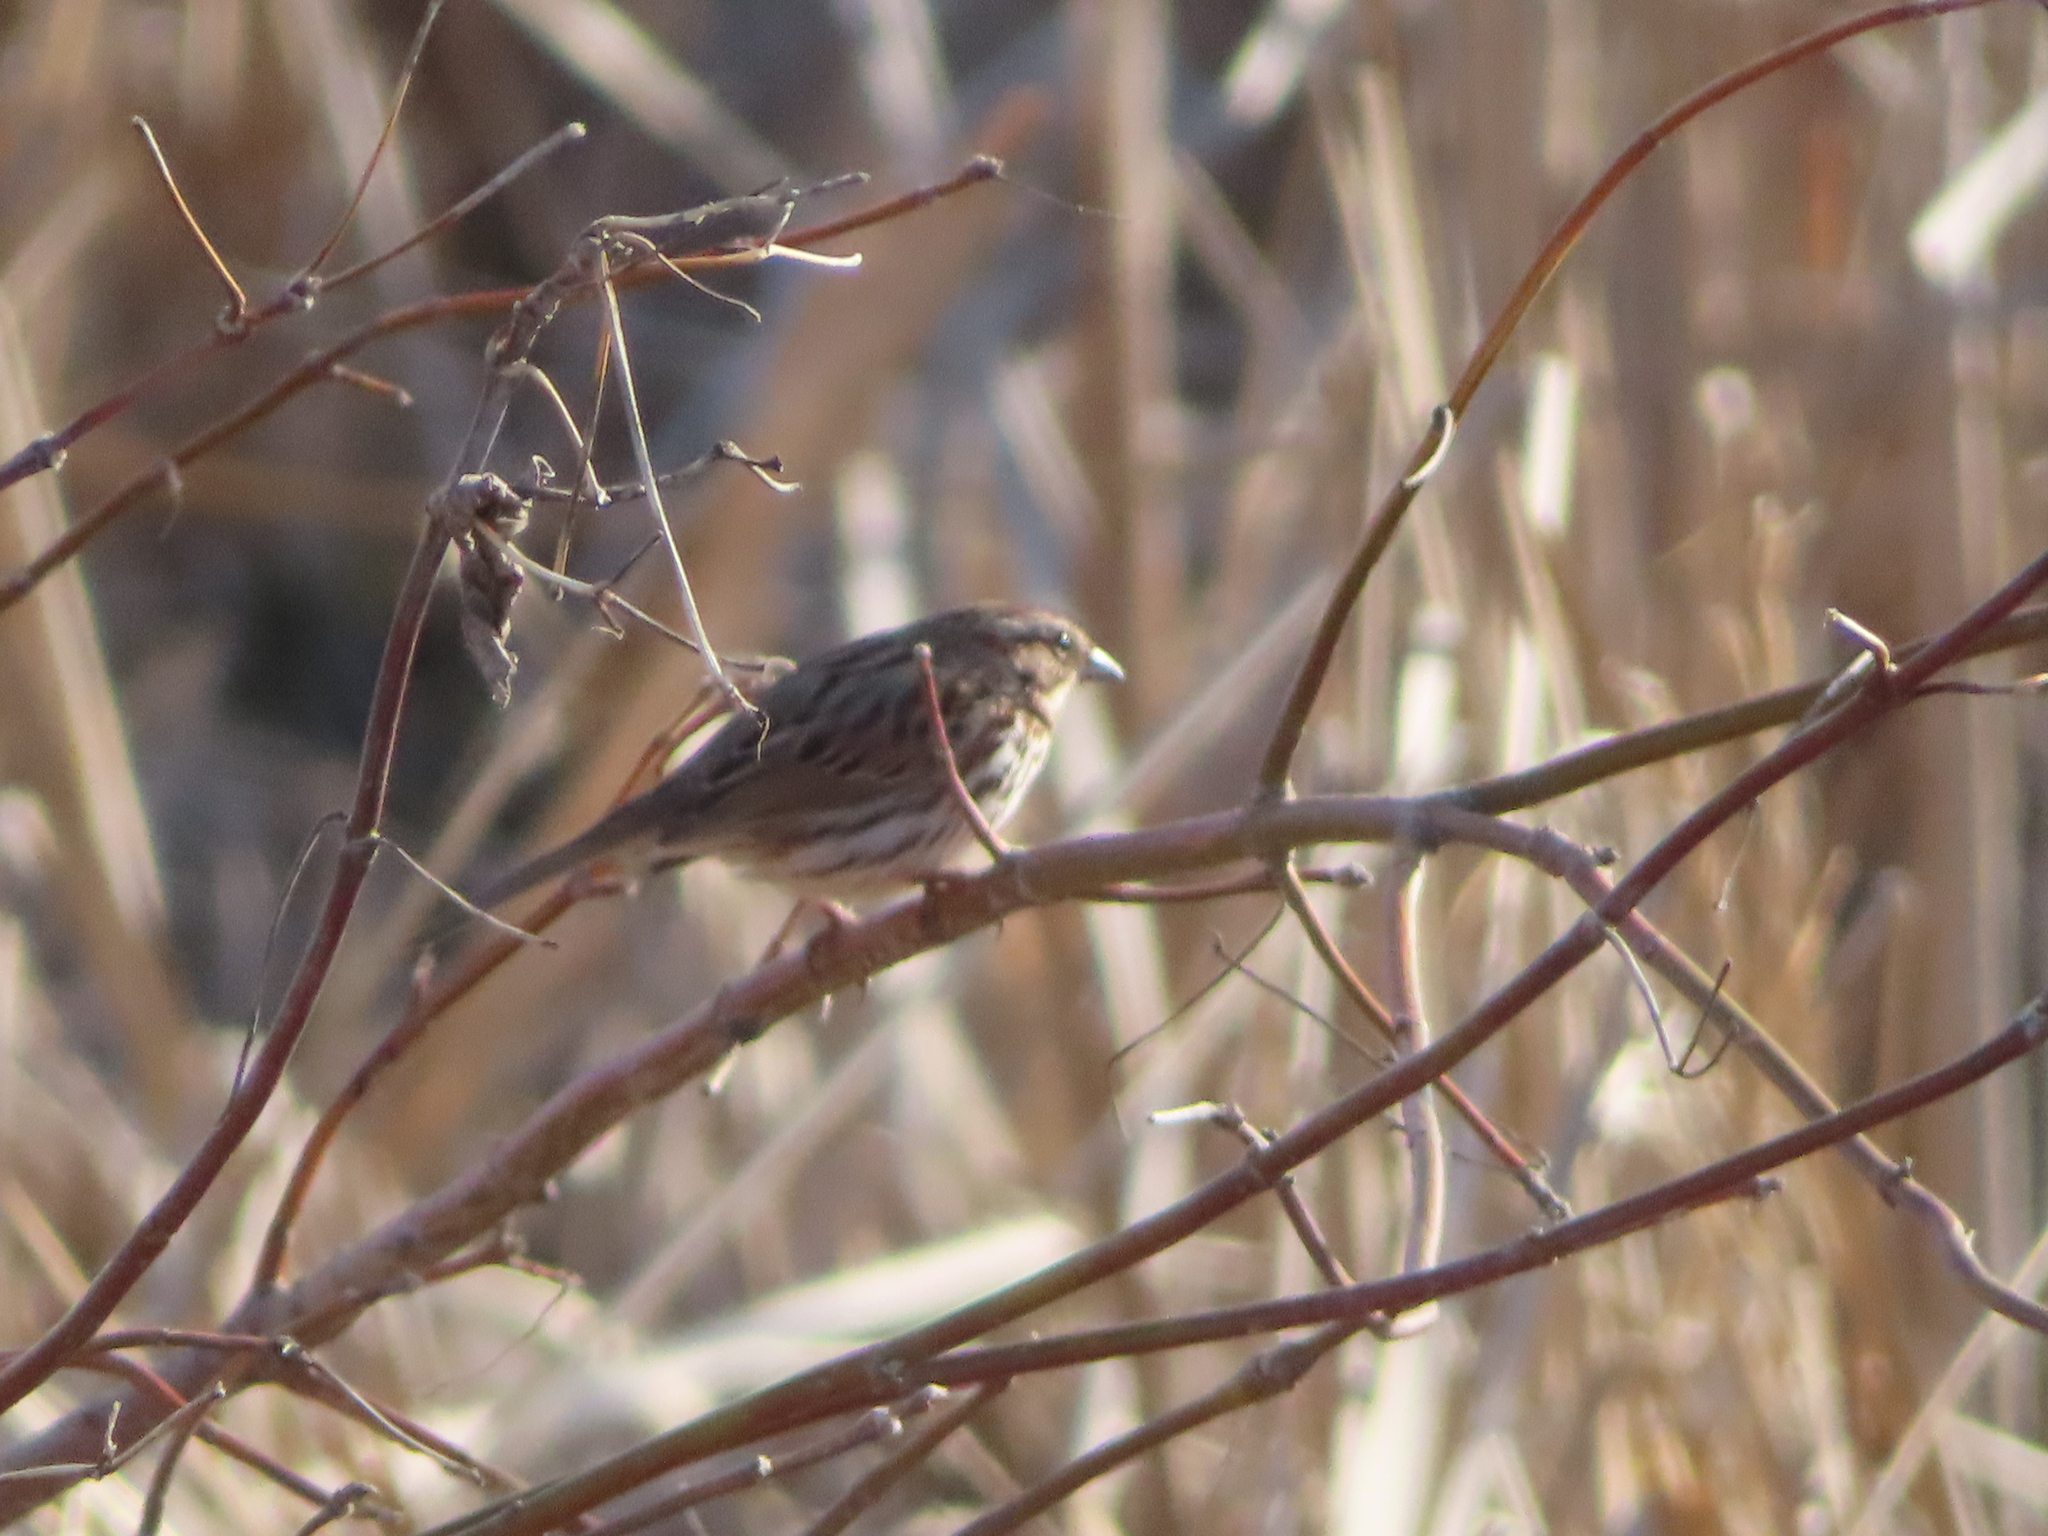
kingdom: Animalia
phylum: Chordata
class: Aves
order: Passeriformes
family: Passerellidae
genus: Melospiza
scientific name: Melospiza melodia
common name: Song sparrow
